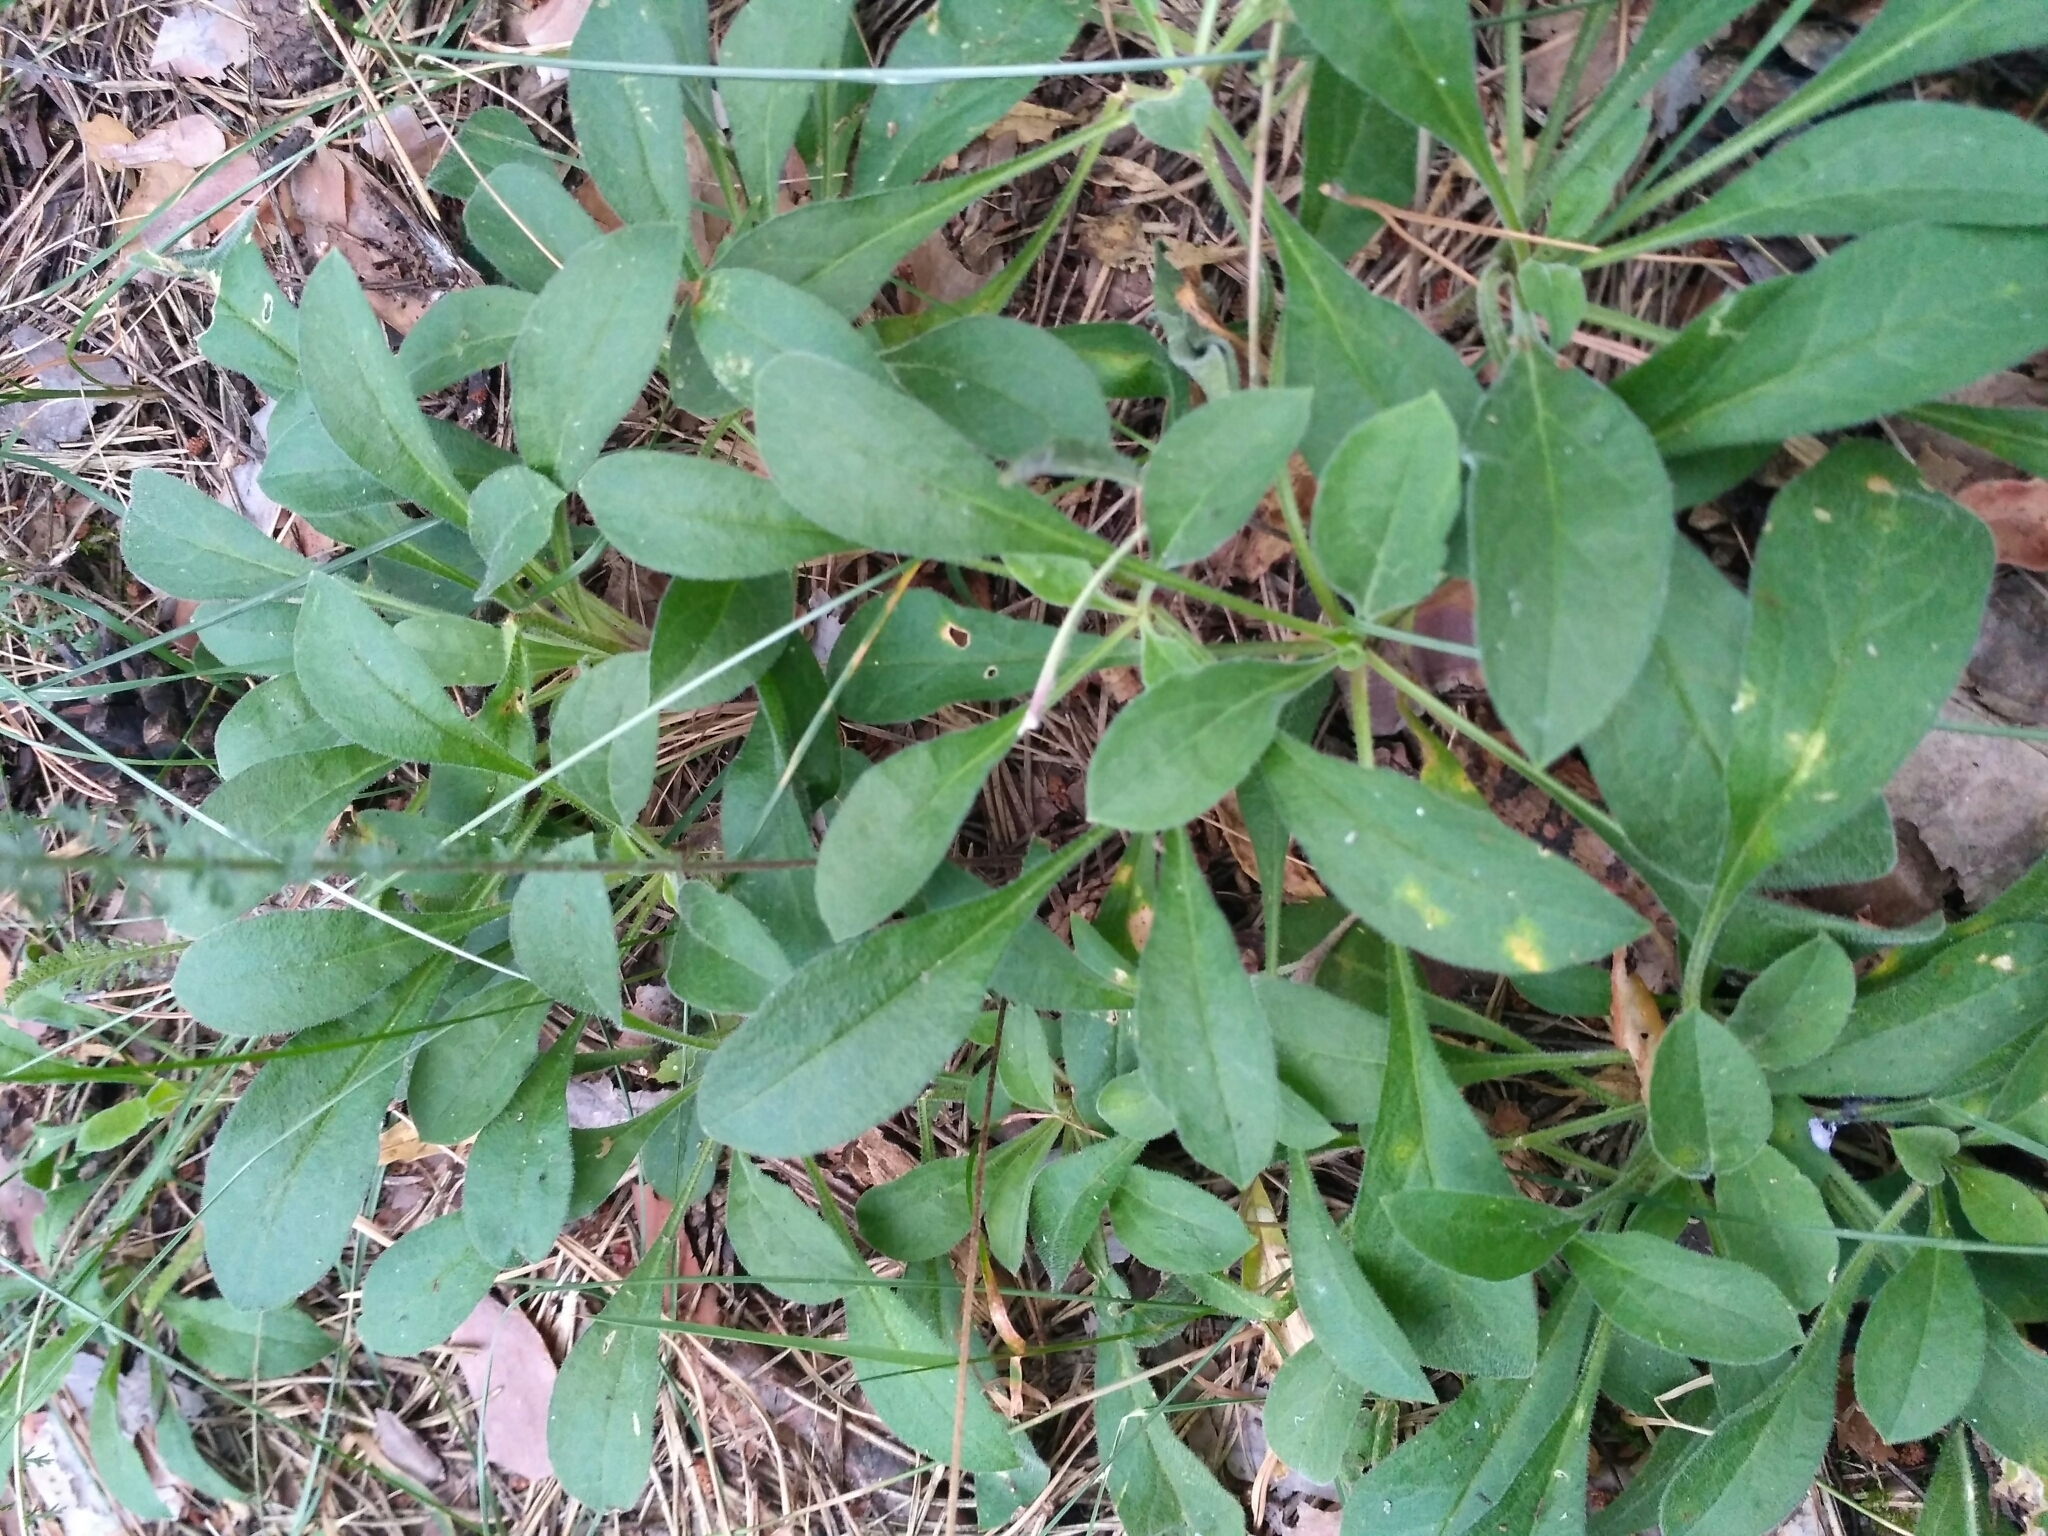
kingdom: Plantae
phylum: Tracheophyta
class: Magnoliopsida
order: Caryophyllales
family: Caryophyllaceae
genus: Silene
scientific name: Silene nutans
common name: Nottingham catchfly
